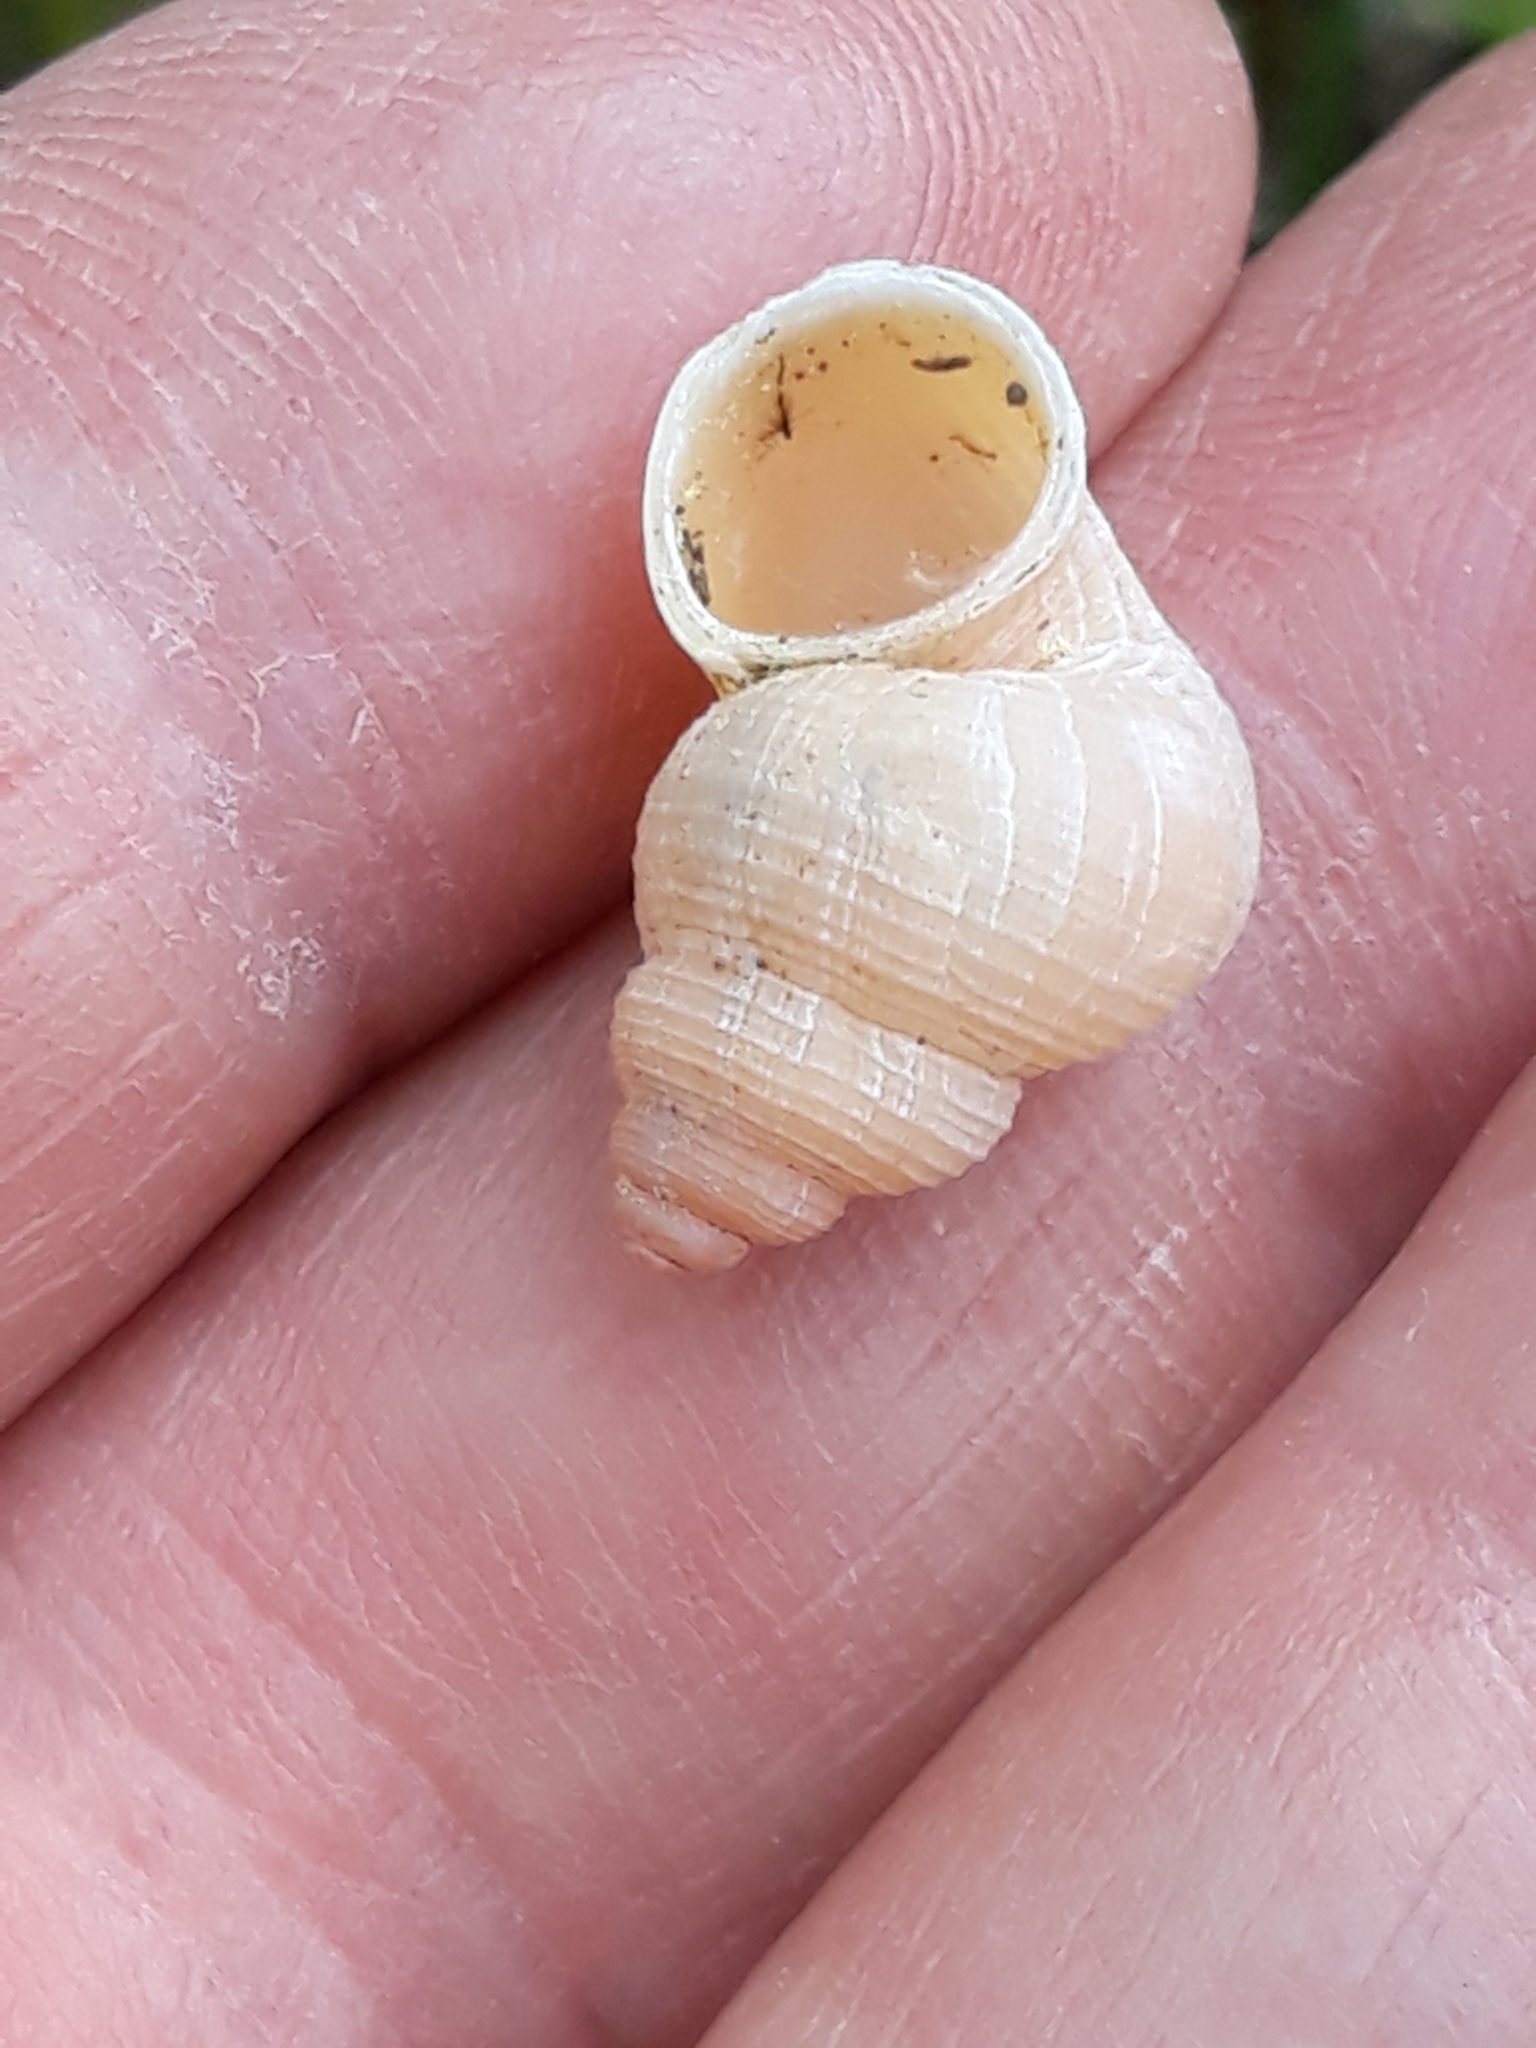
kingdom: Animalia
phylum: Mollusca
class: Gastropoda
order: Littorinimorpha
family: Pomatiidae
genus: Tudorella
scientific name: Tudorella sulcata
